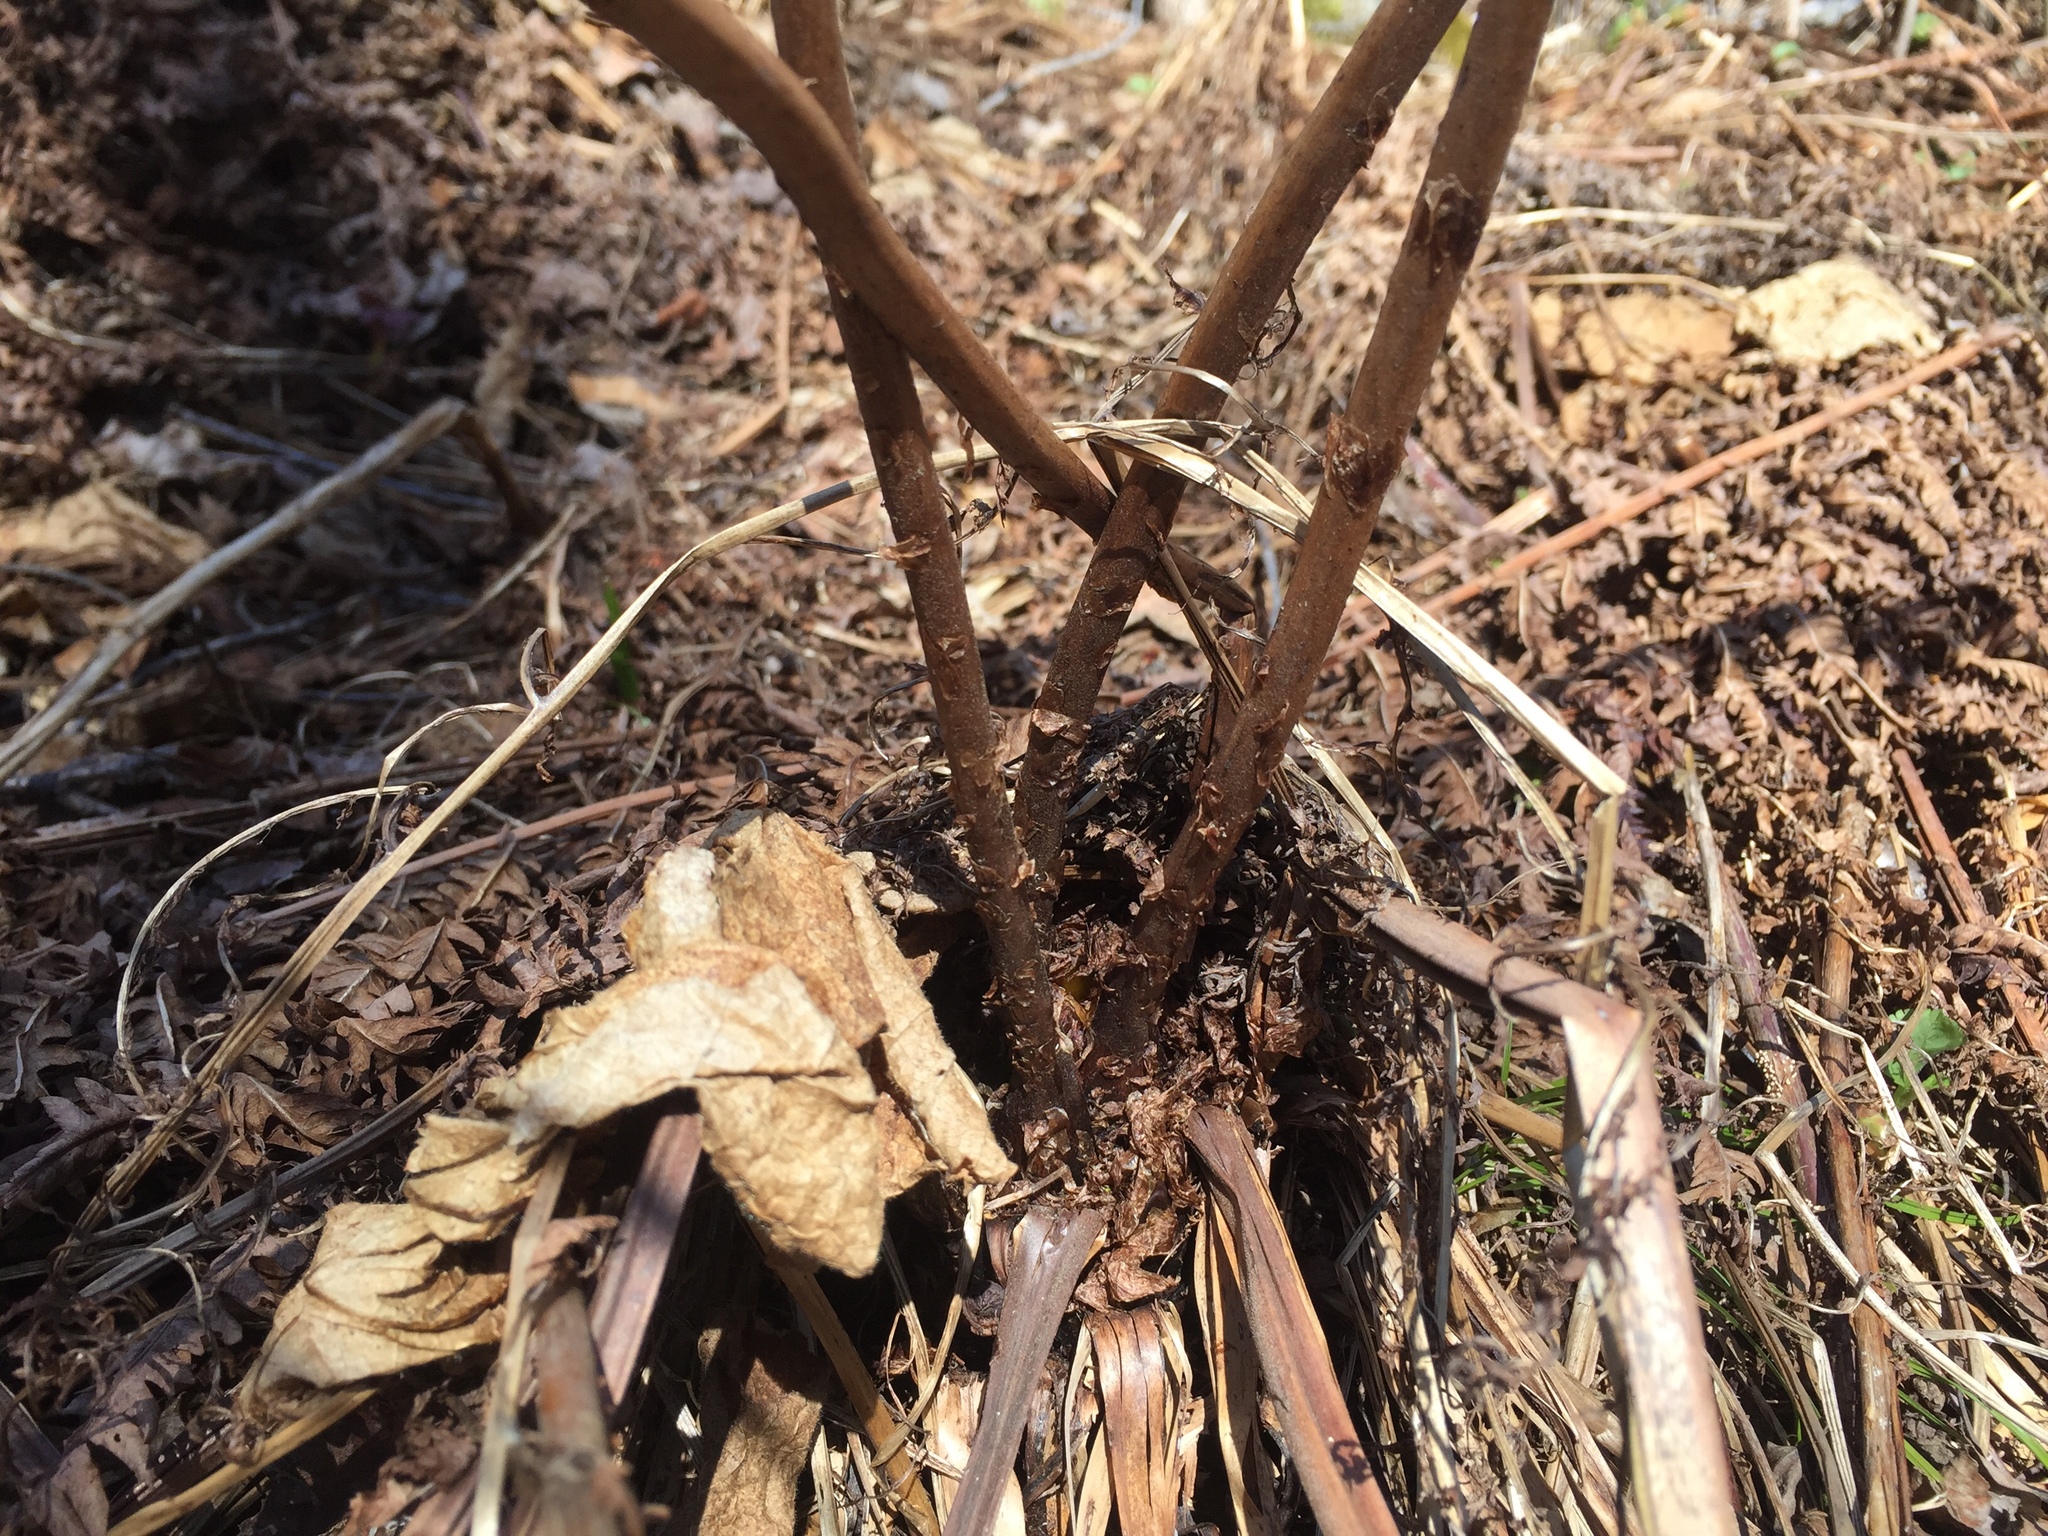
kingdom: Plantae
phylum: Tracheophyta
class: Polypodiopsida
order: Polypodiales
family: Athyriaceae
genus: Athyrium
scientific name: Athyrium angustum
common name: Northern lady fern
